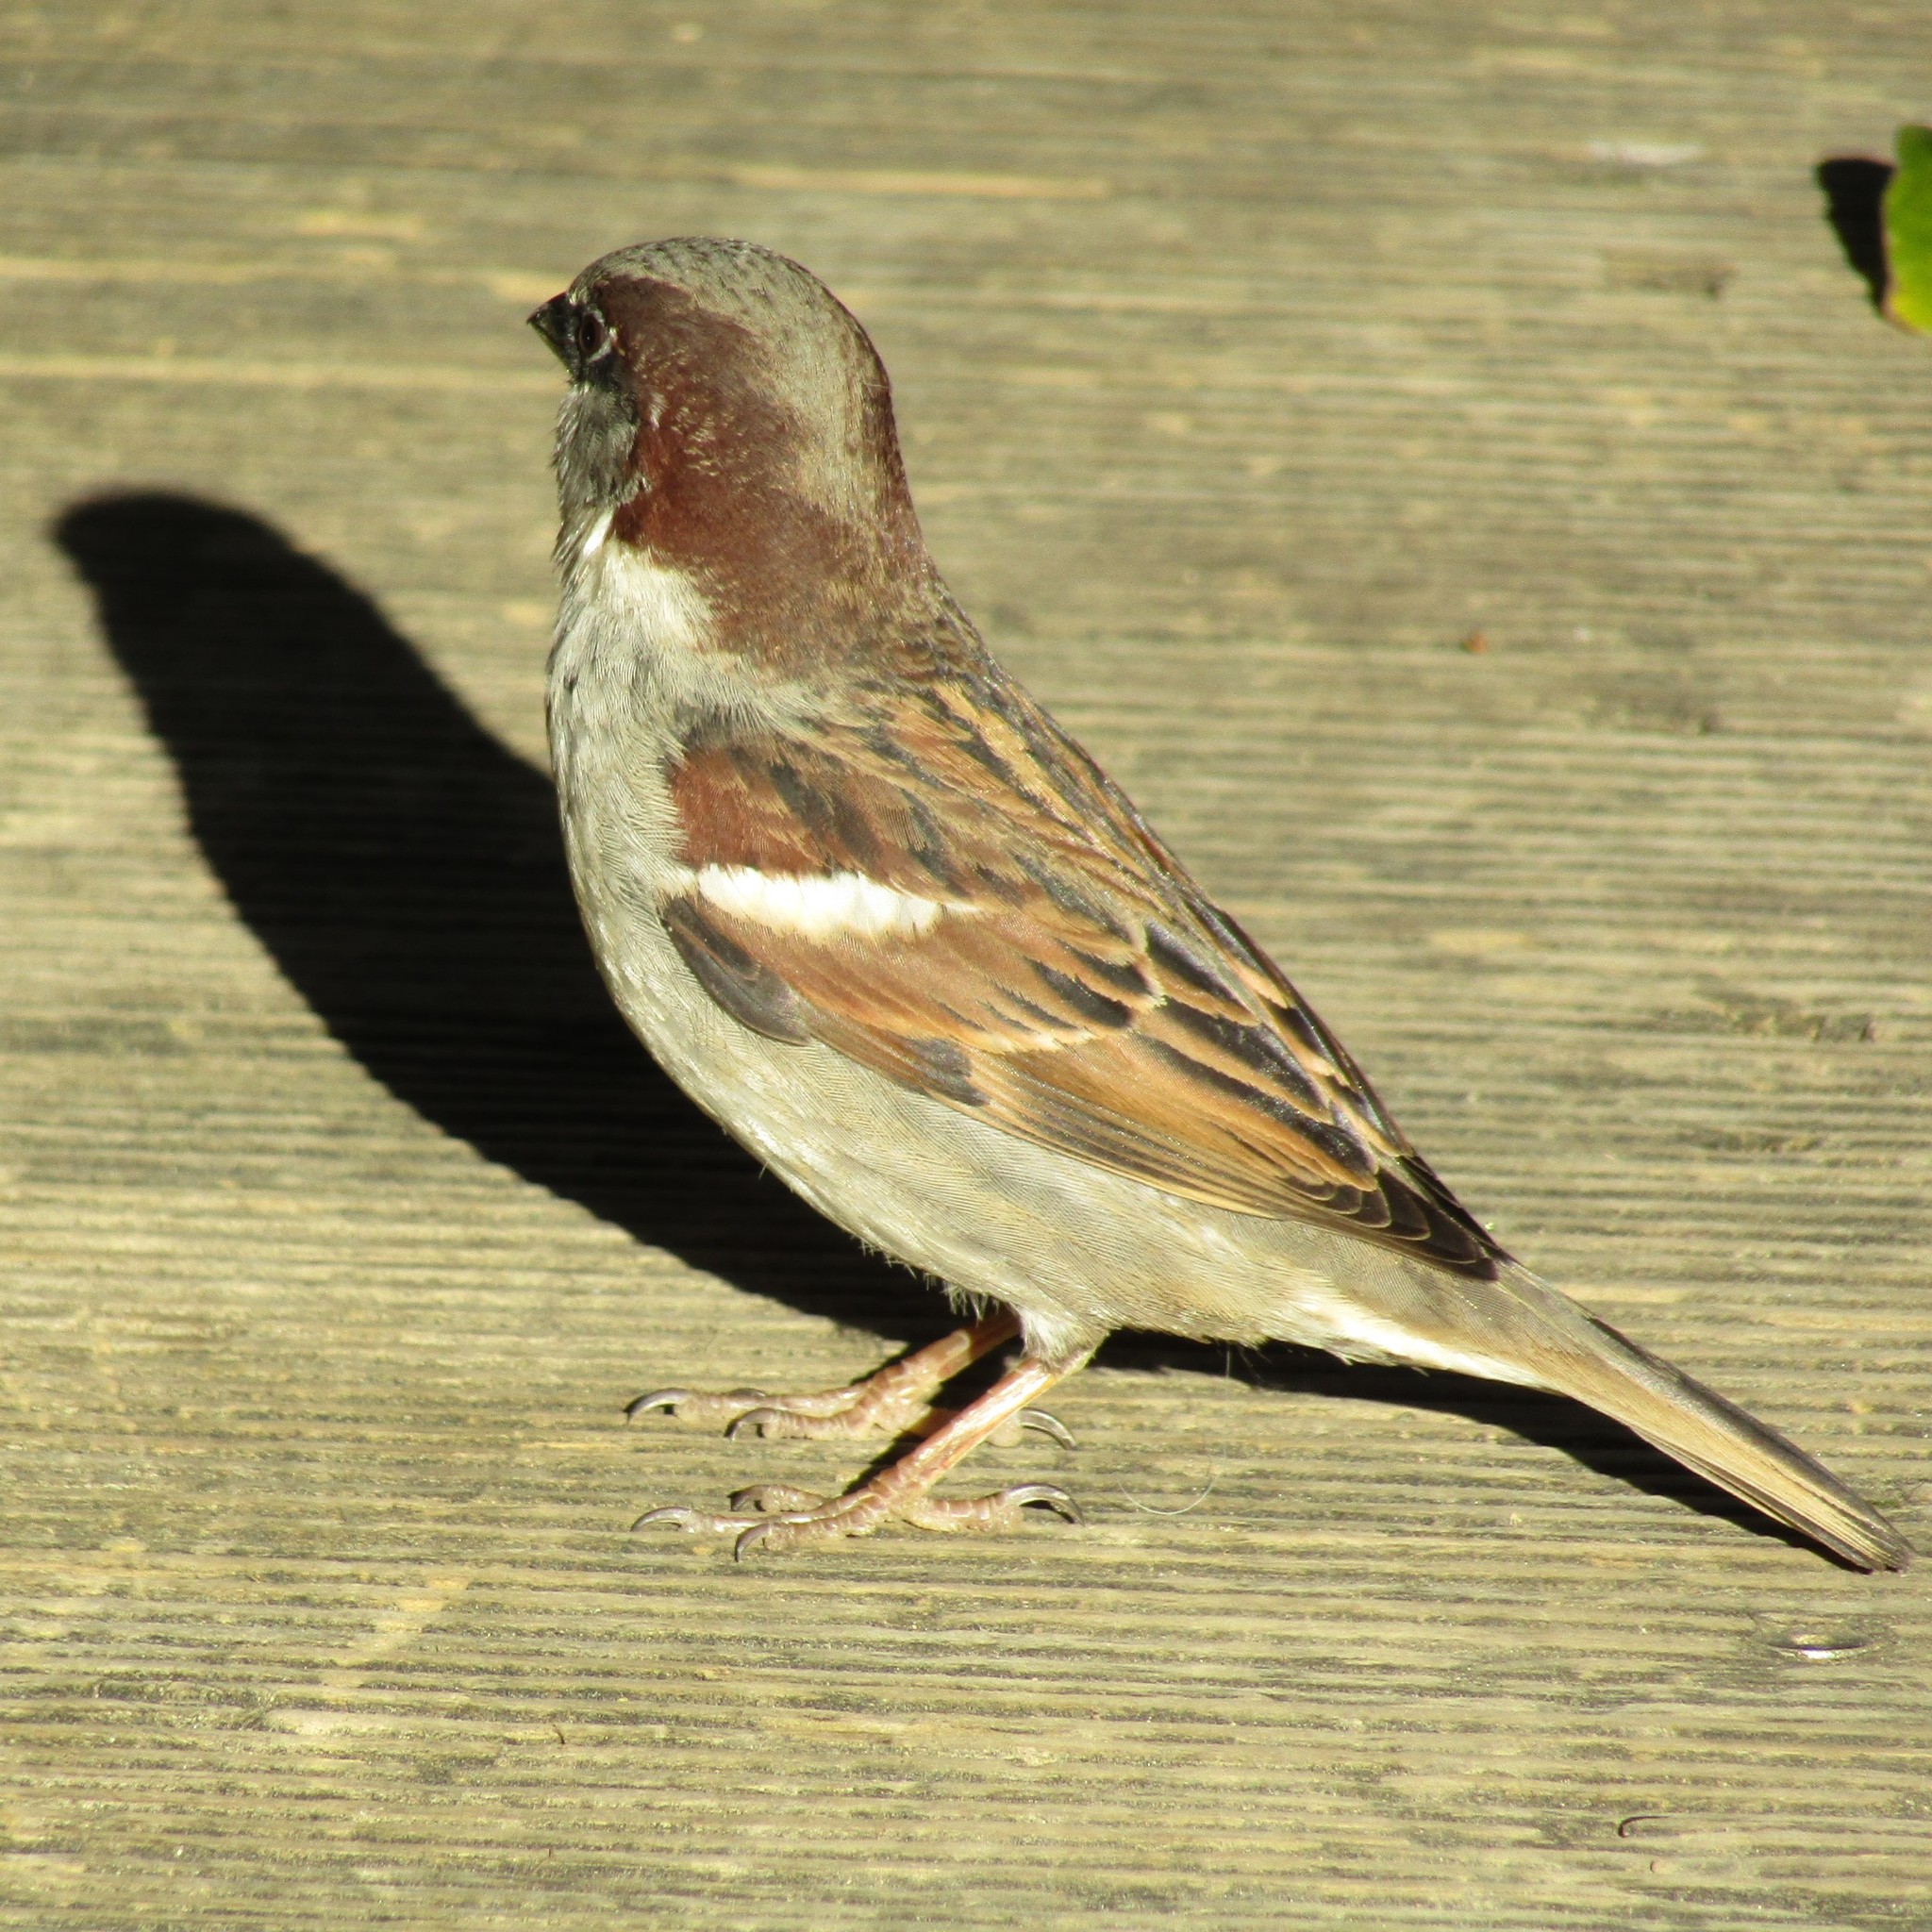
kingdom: Animalia
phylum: Chordata
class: Aves
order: Passeriformes
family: Passeridae
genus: Passer
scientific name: Passer domesticus
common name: House sparrow
